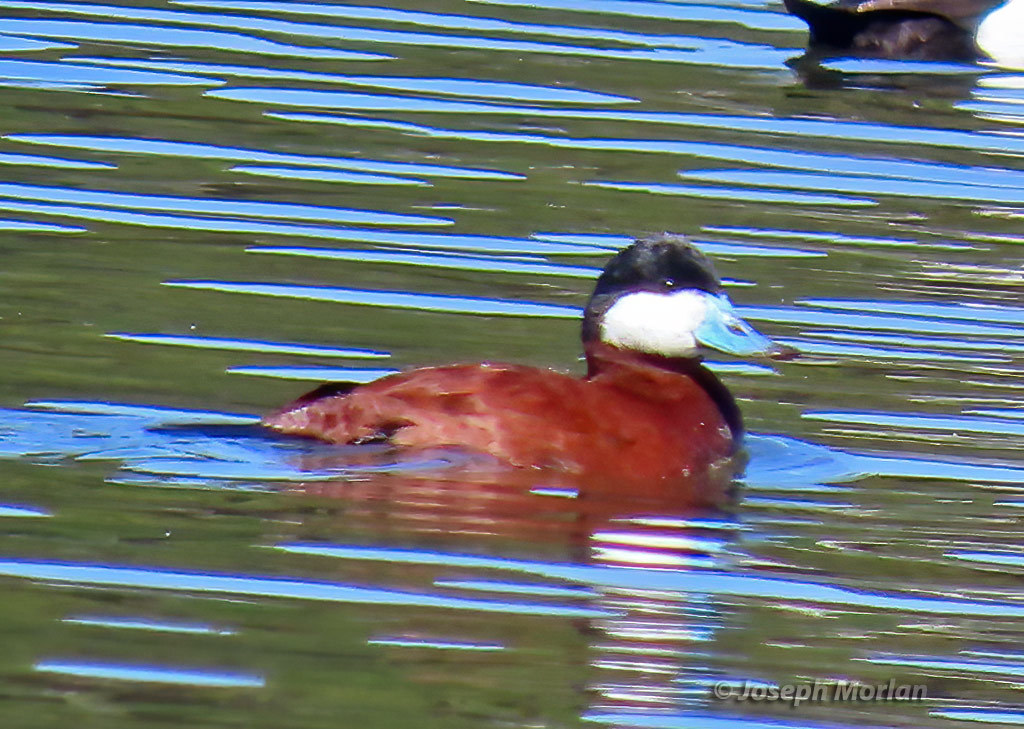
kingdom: Animalia
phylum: Chordata
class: Aves
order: Anseriformes
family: Anatidae
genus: Oxyura
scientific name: Oxyura jamaicensis
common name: Ruddy duck
